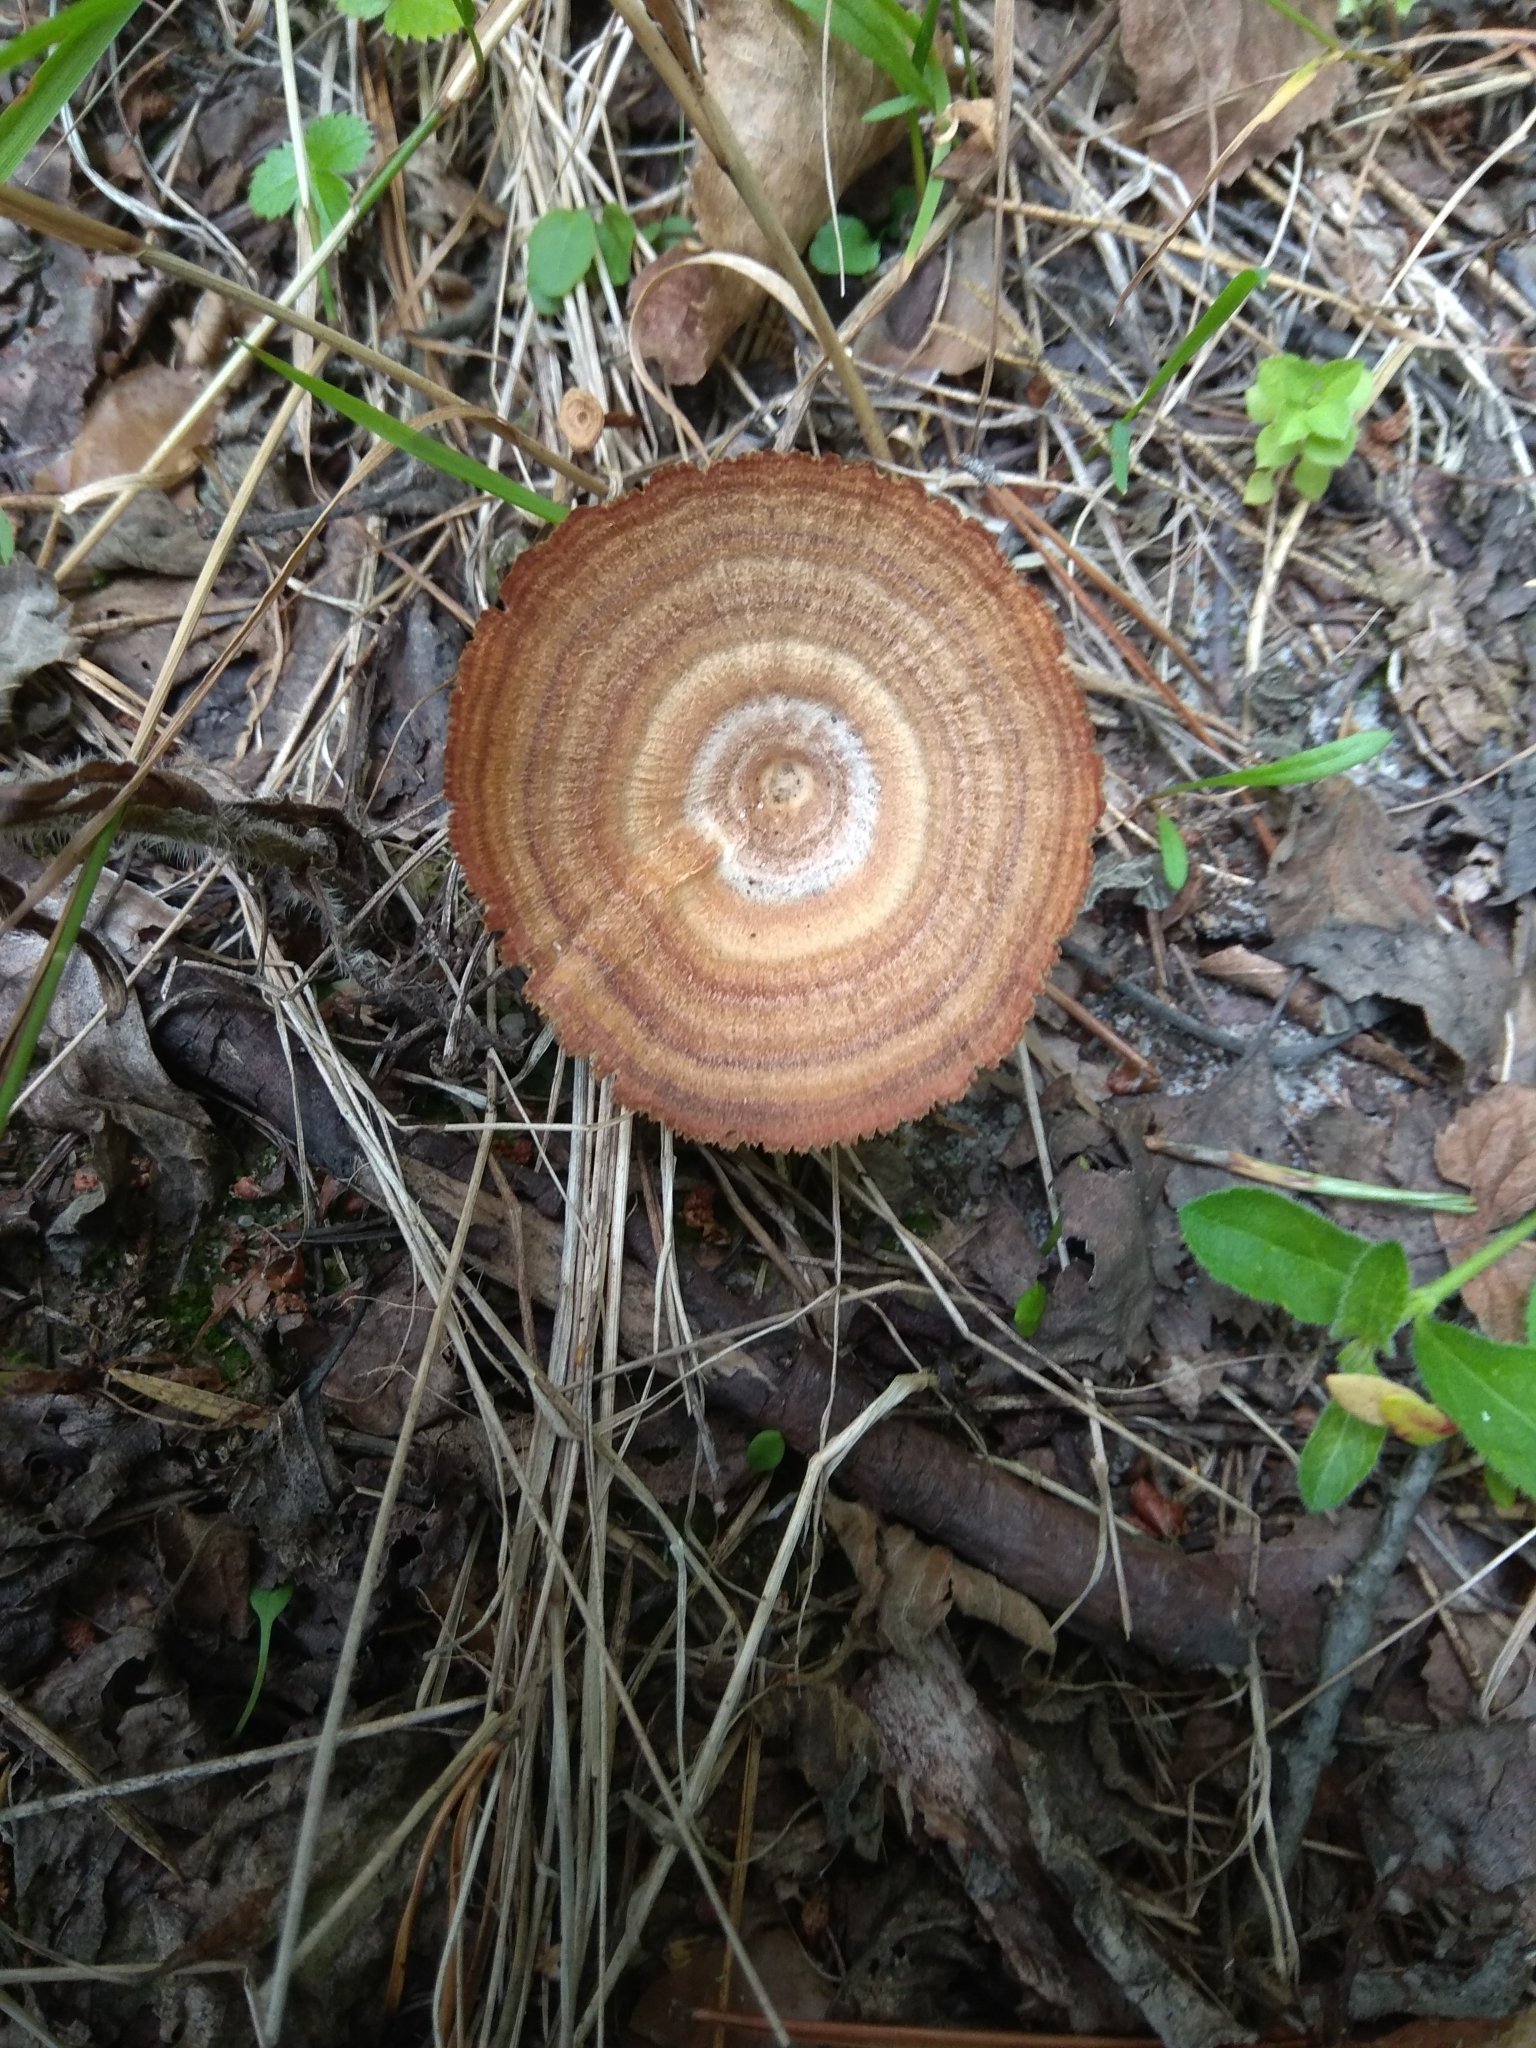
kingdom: Fungi
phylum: Basidiomycota
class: Agaricomycetes
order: Hymenochaetales
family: Hymenochaetaceae
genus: Coltricia
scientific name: Coltricia perennis
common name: Tiger's eye
